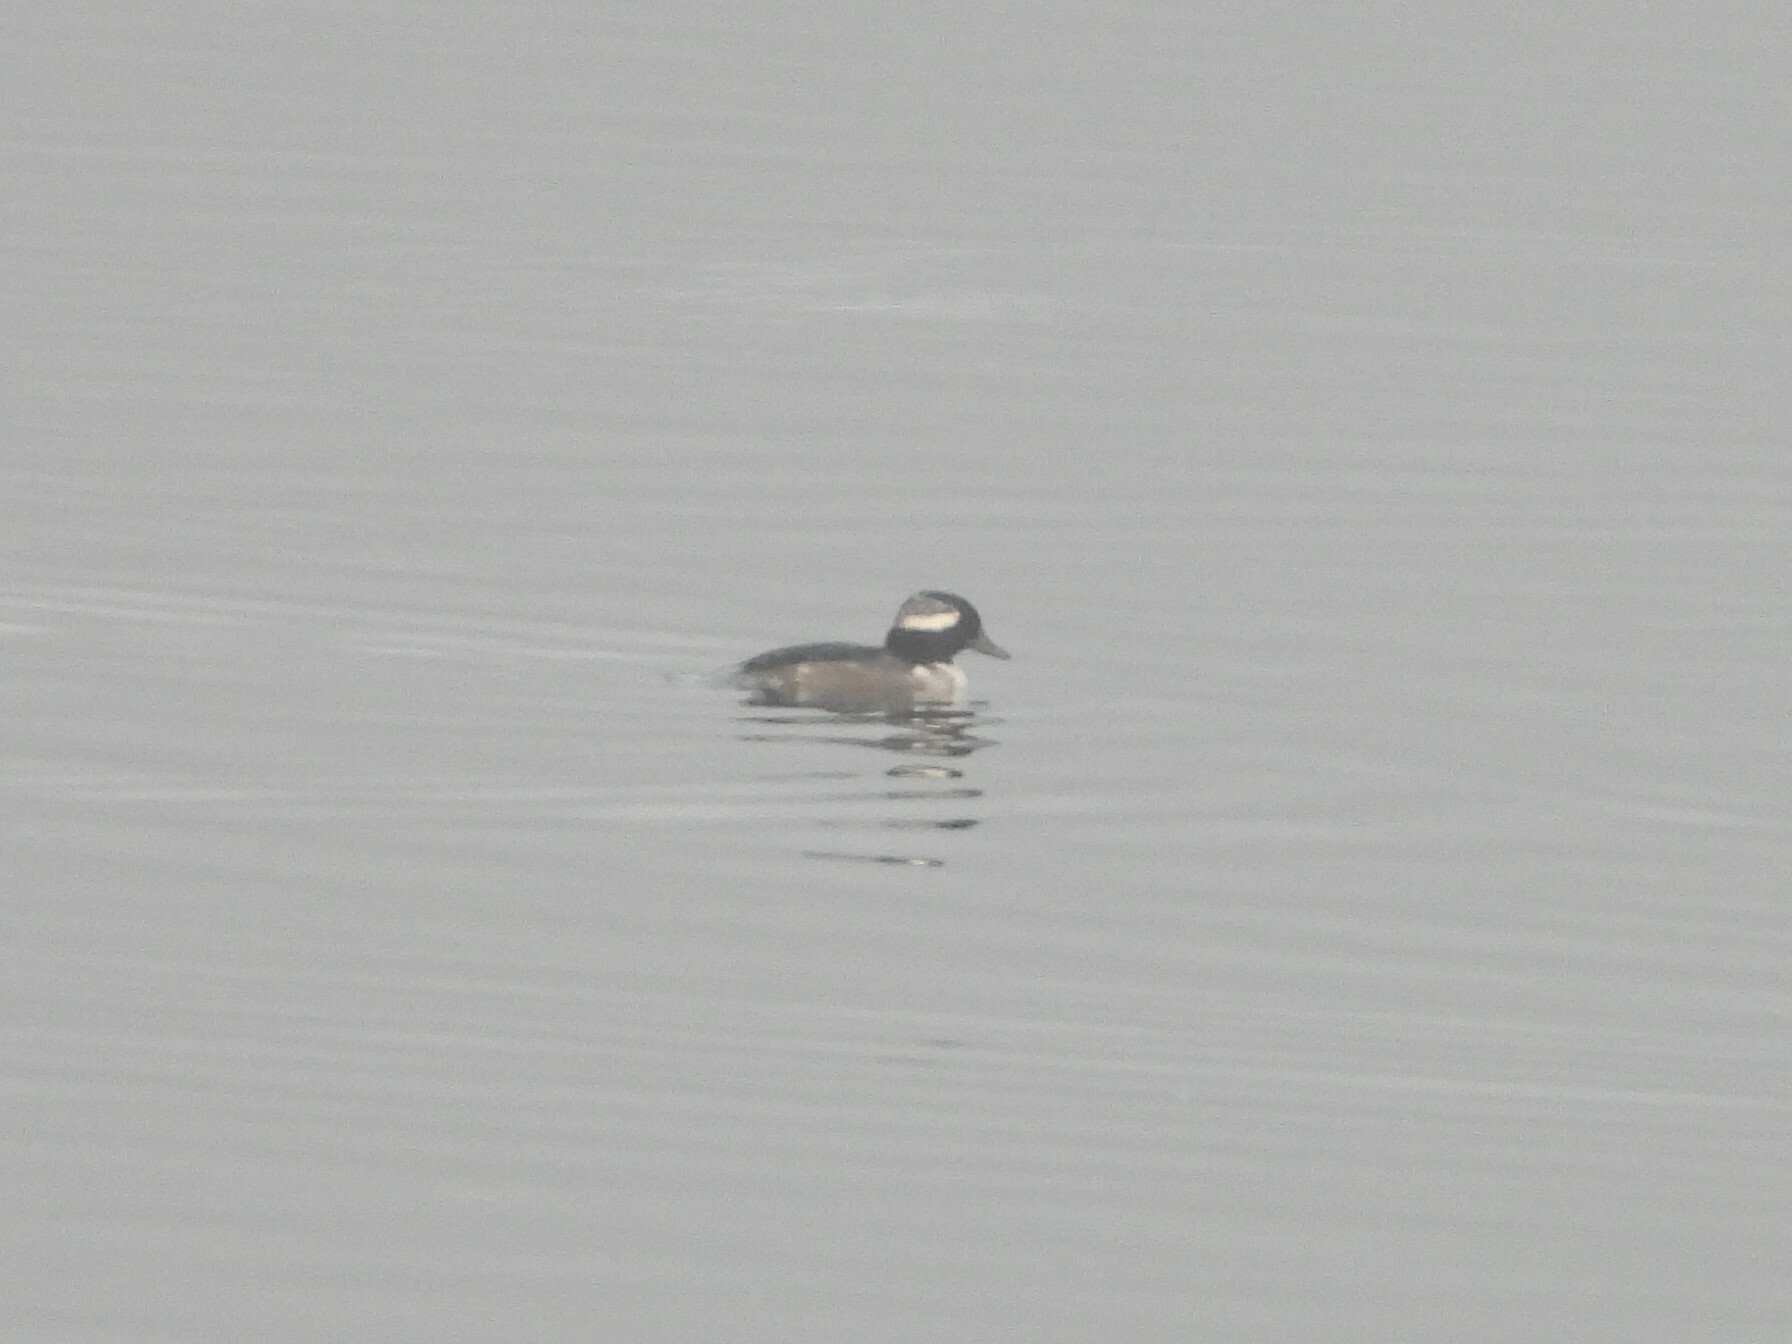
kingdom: Animalia
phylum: Chordata
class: Aves
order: Anseriformes
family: Anatidae
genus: Bucephala
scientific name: Bucephala albeola
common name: Bufflehead
